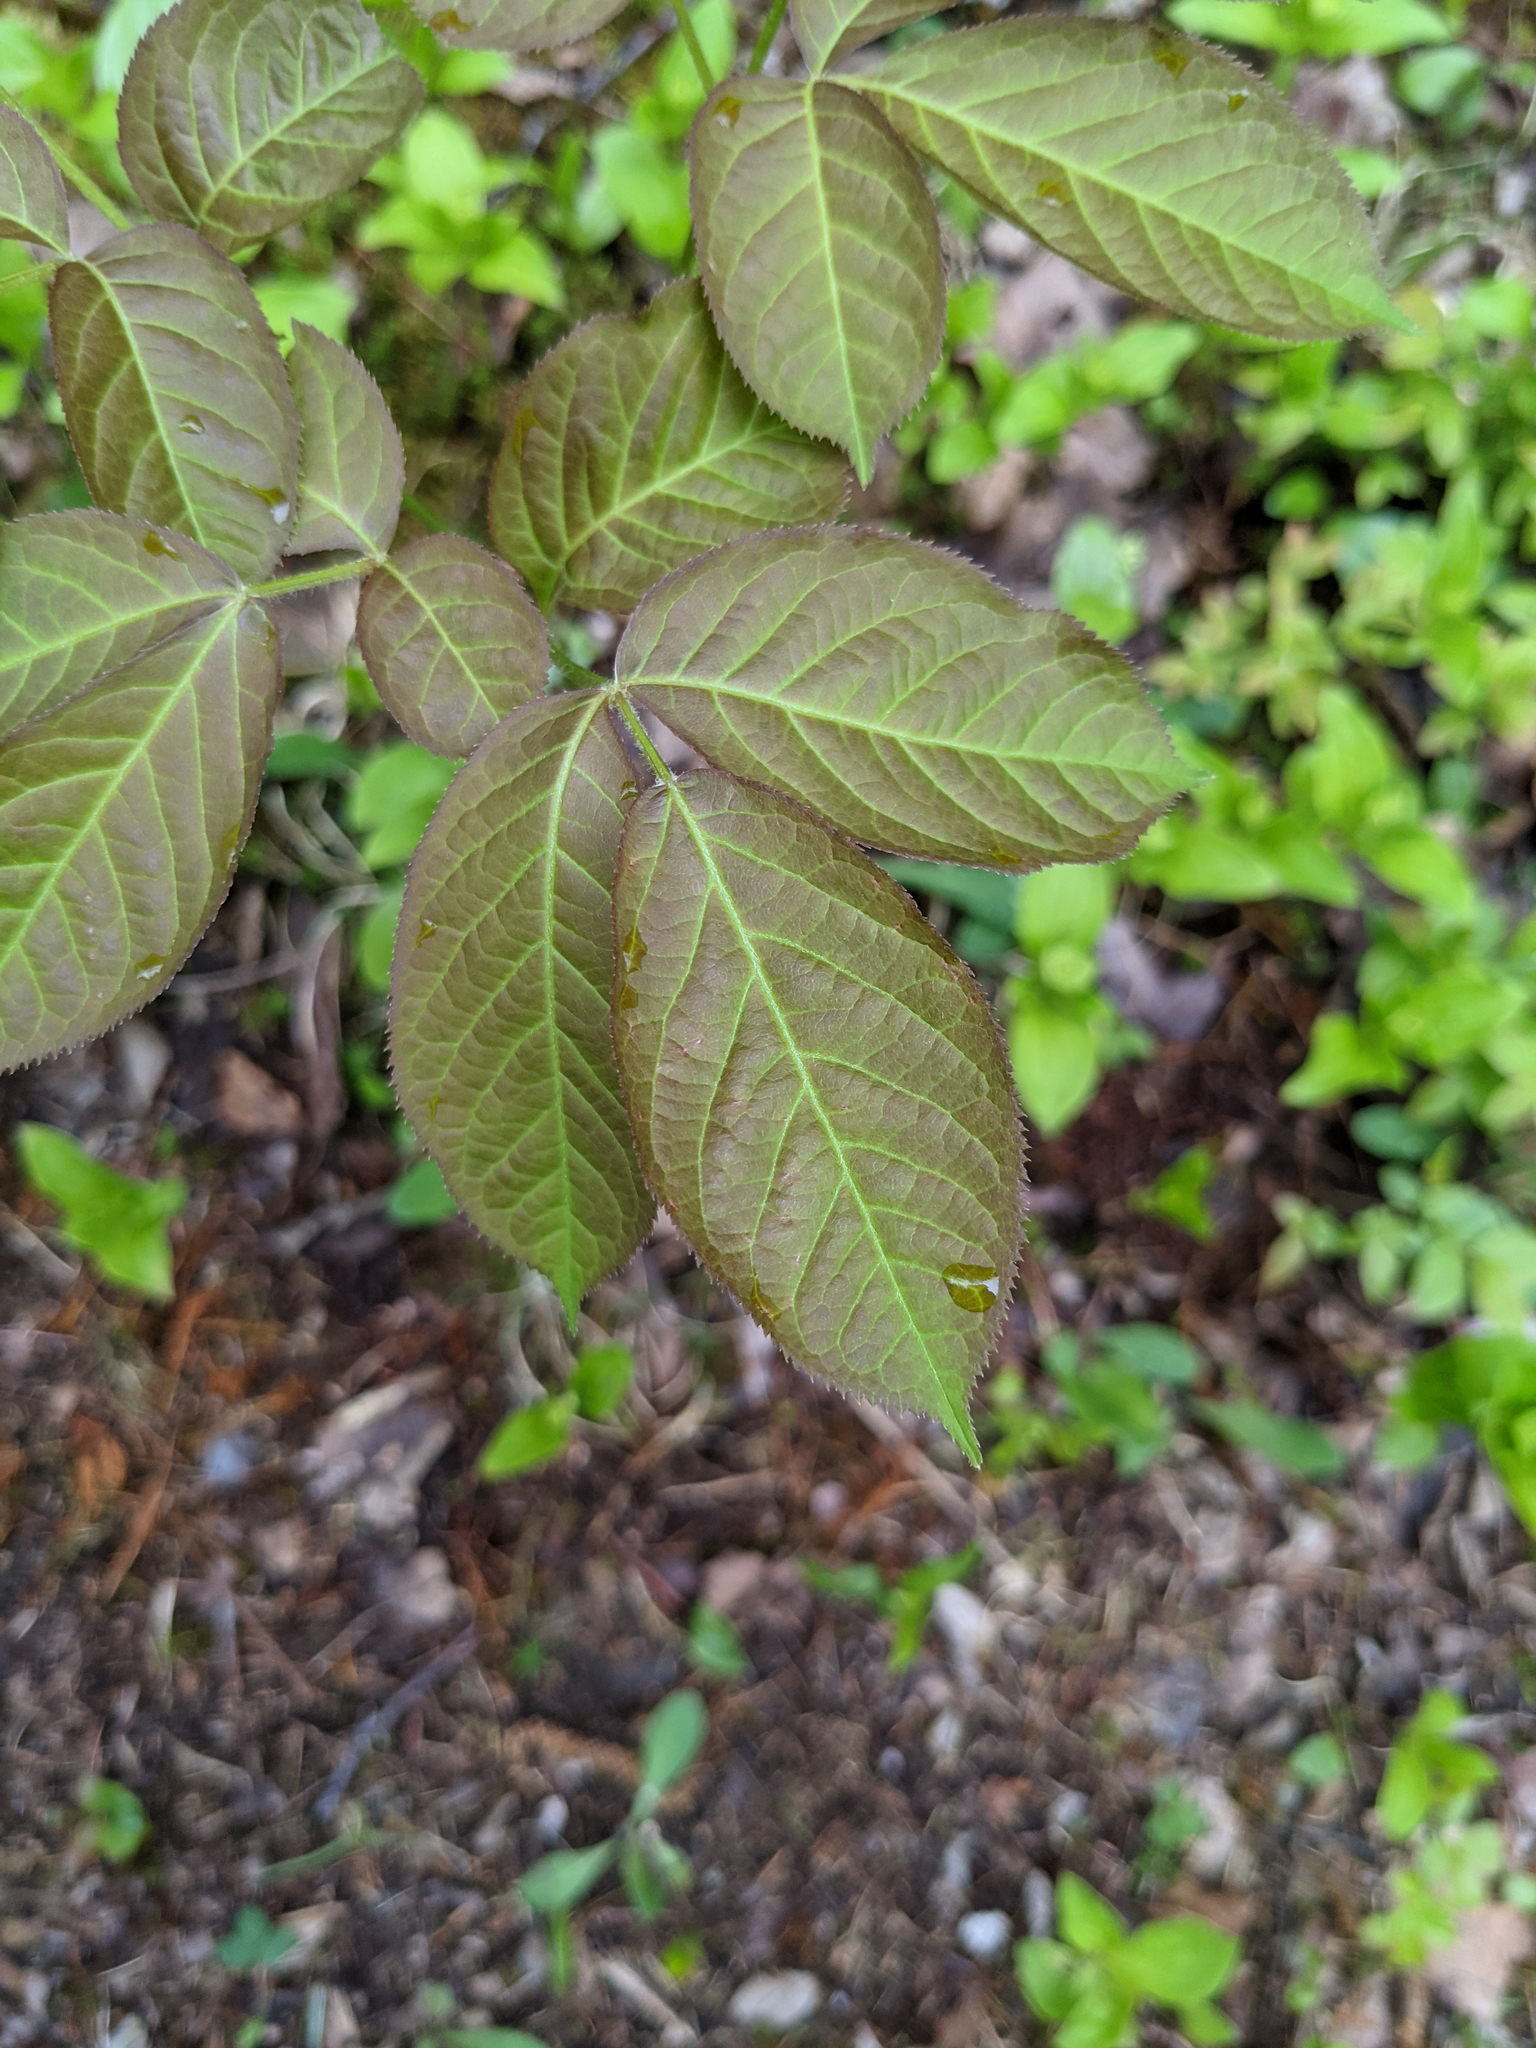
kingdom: Plantae
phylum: Tracheophyta
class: Magnoliopsida
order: Apiales
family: Araliaceae
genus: Aralia
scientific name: Aralia nudicaulis
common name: Wild sarsaparilla
